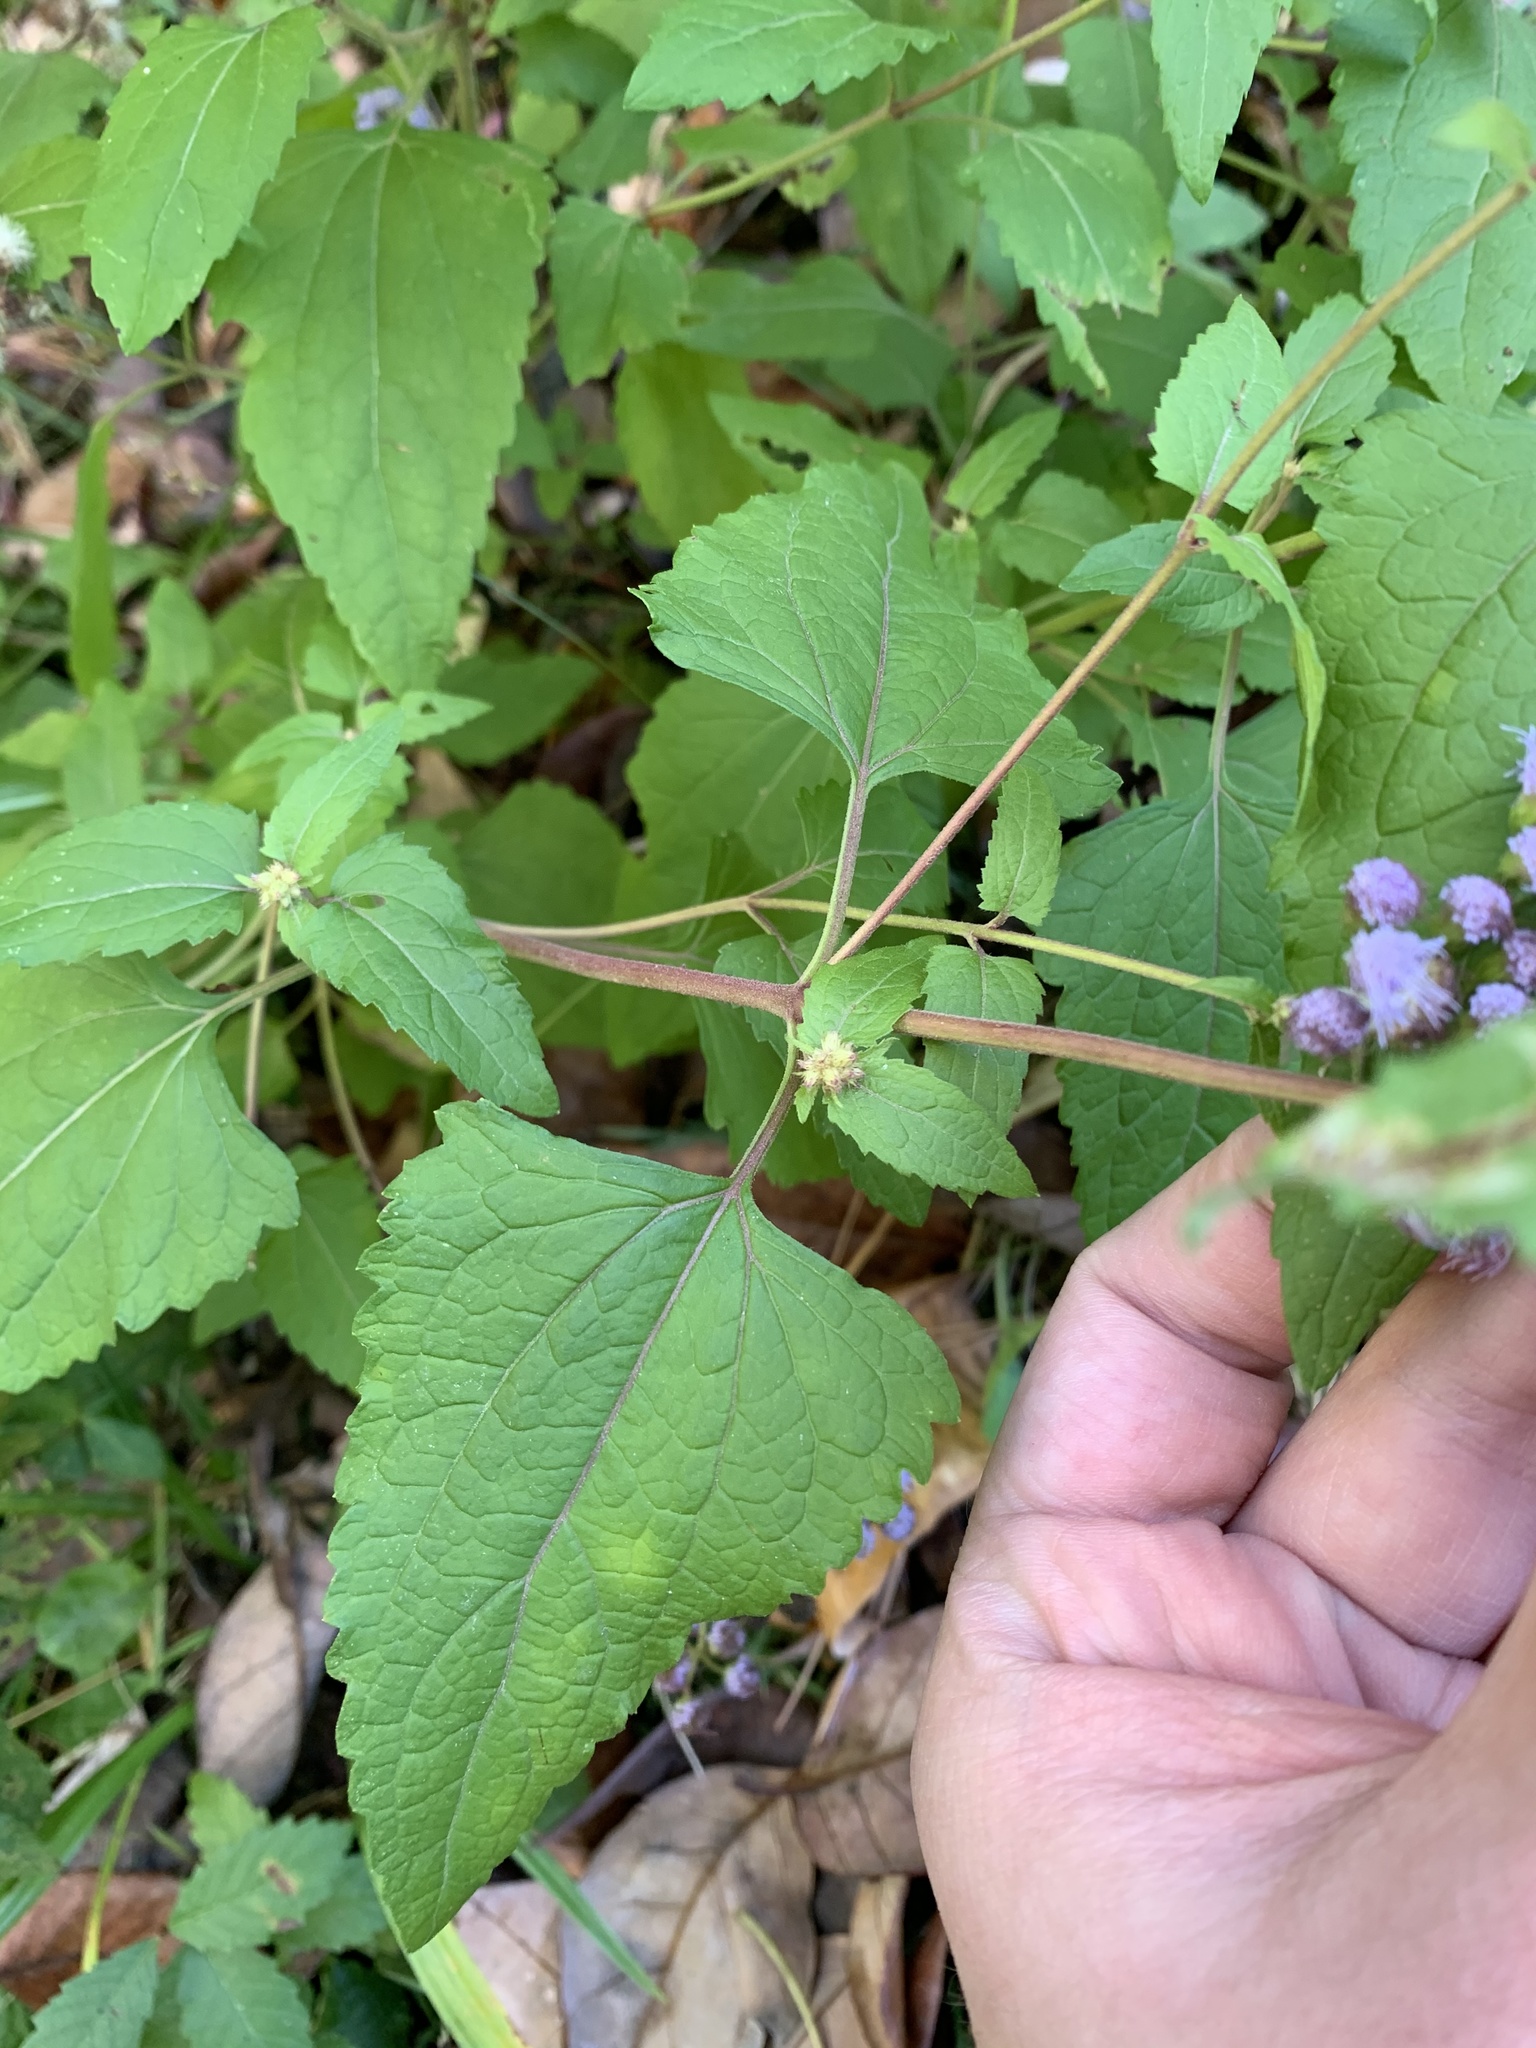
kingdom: Plantae
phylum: Tracheophyta
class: Magnoliopsida
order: Asterales
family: Asteraceae
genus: Conoclinium
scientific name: Conoclinium coelestinum
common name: Blue mistflower
